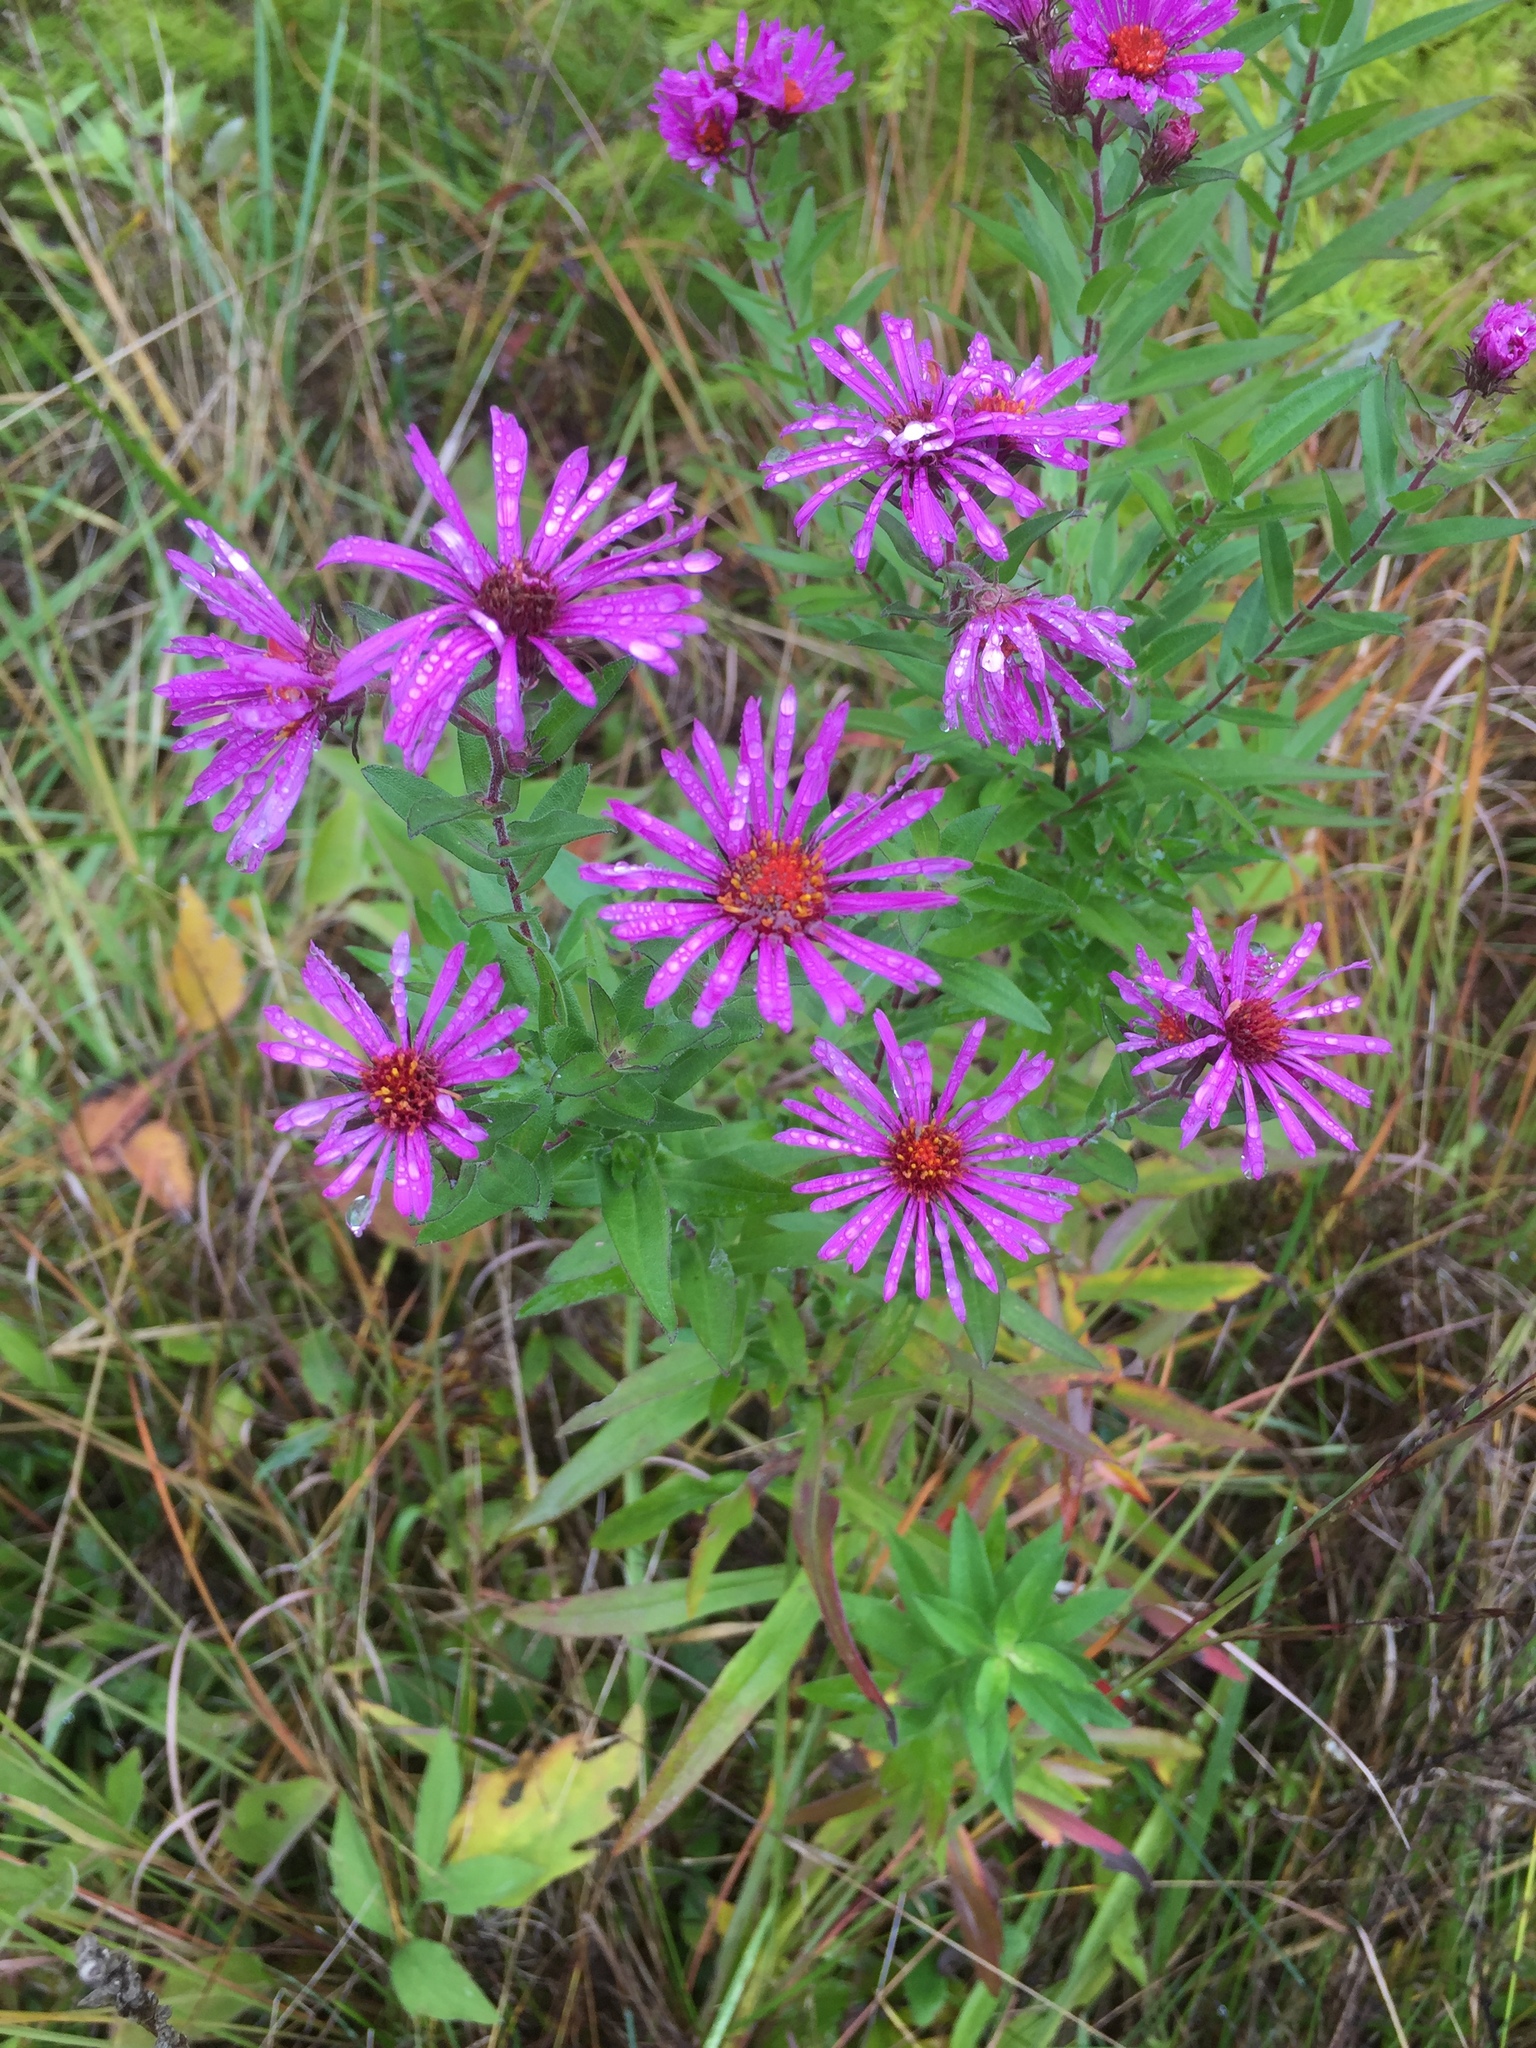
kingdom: Plantae
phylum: Tracheophyta
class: Magnoliopsida
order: Asterales
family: Asteraceae
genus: Symphyotrichum
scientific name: Symphyotrichum novae-angliae
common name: Michaelmas daisy
